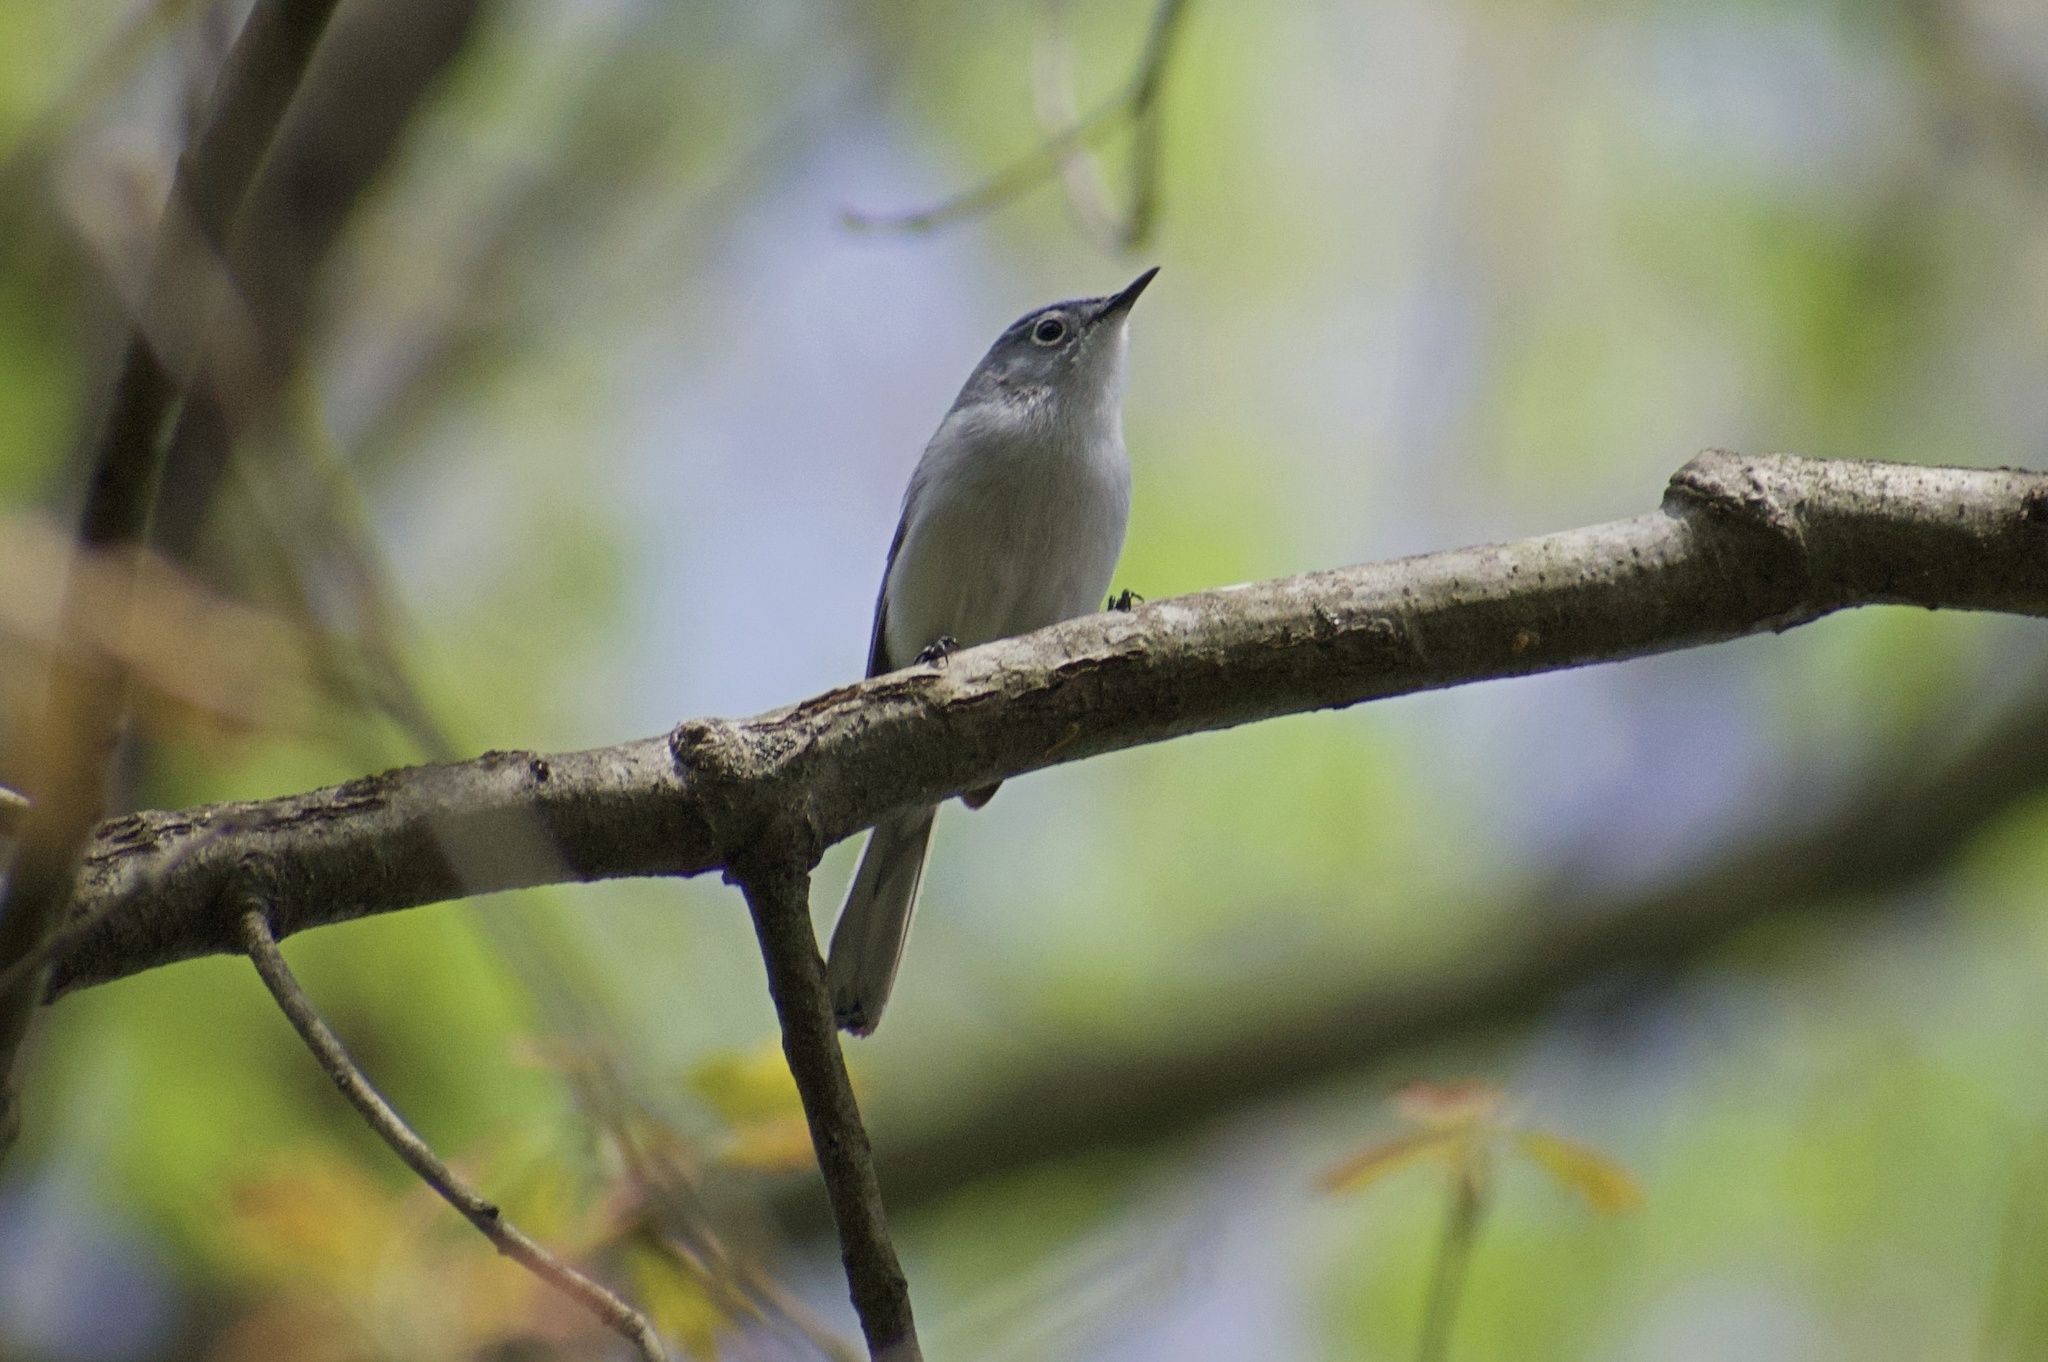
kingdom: Animalia
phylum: Chordata
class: Aves
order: Passeriformes
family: Polioptilidae
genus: Polioptila
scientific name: Polioptila caerulea
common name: Blue-gray gnatcatcher
